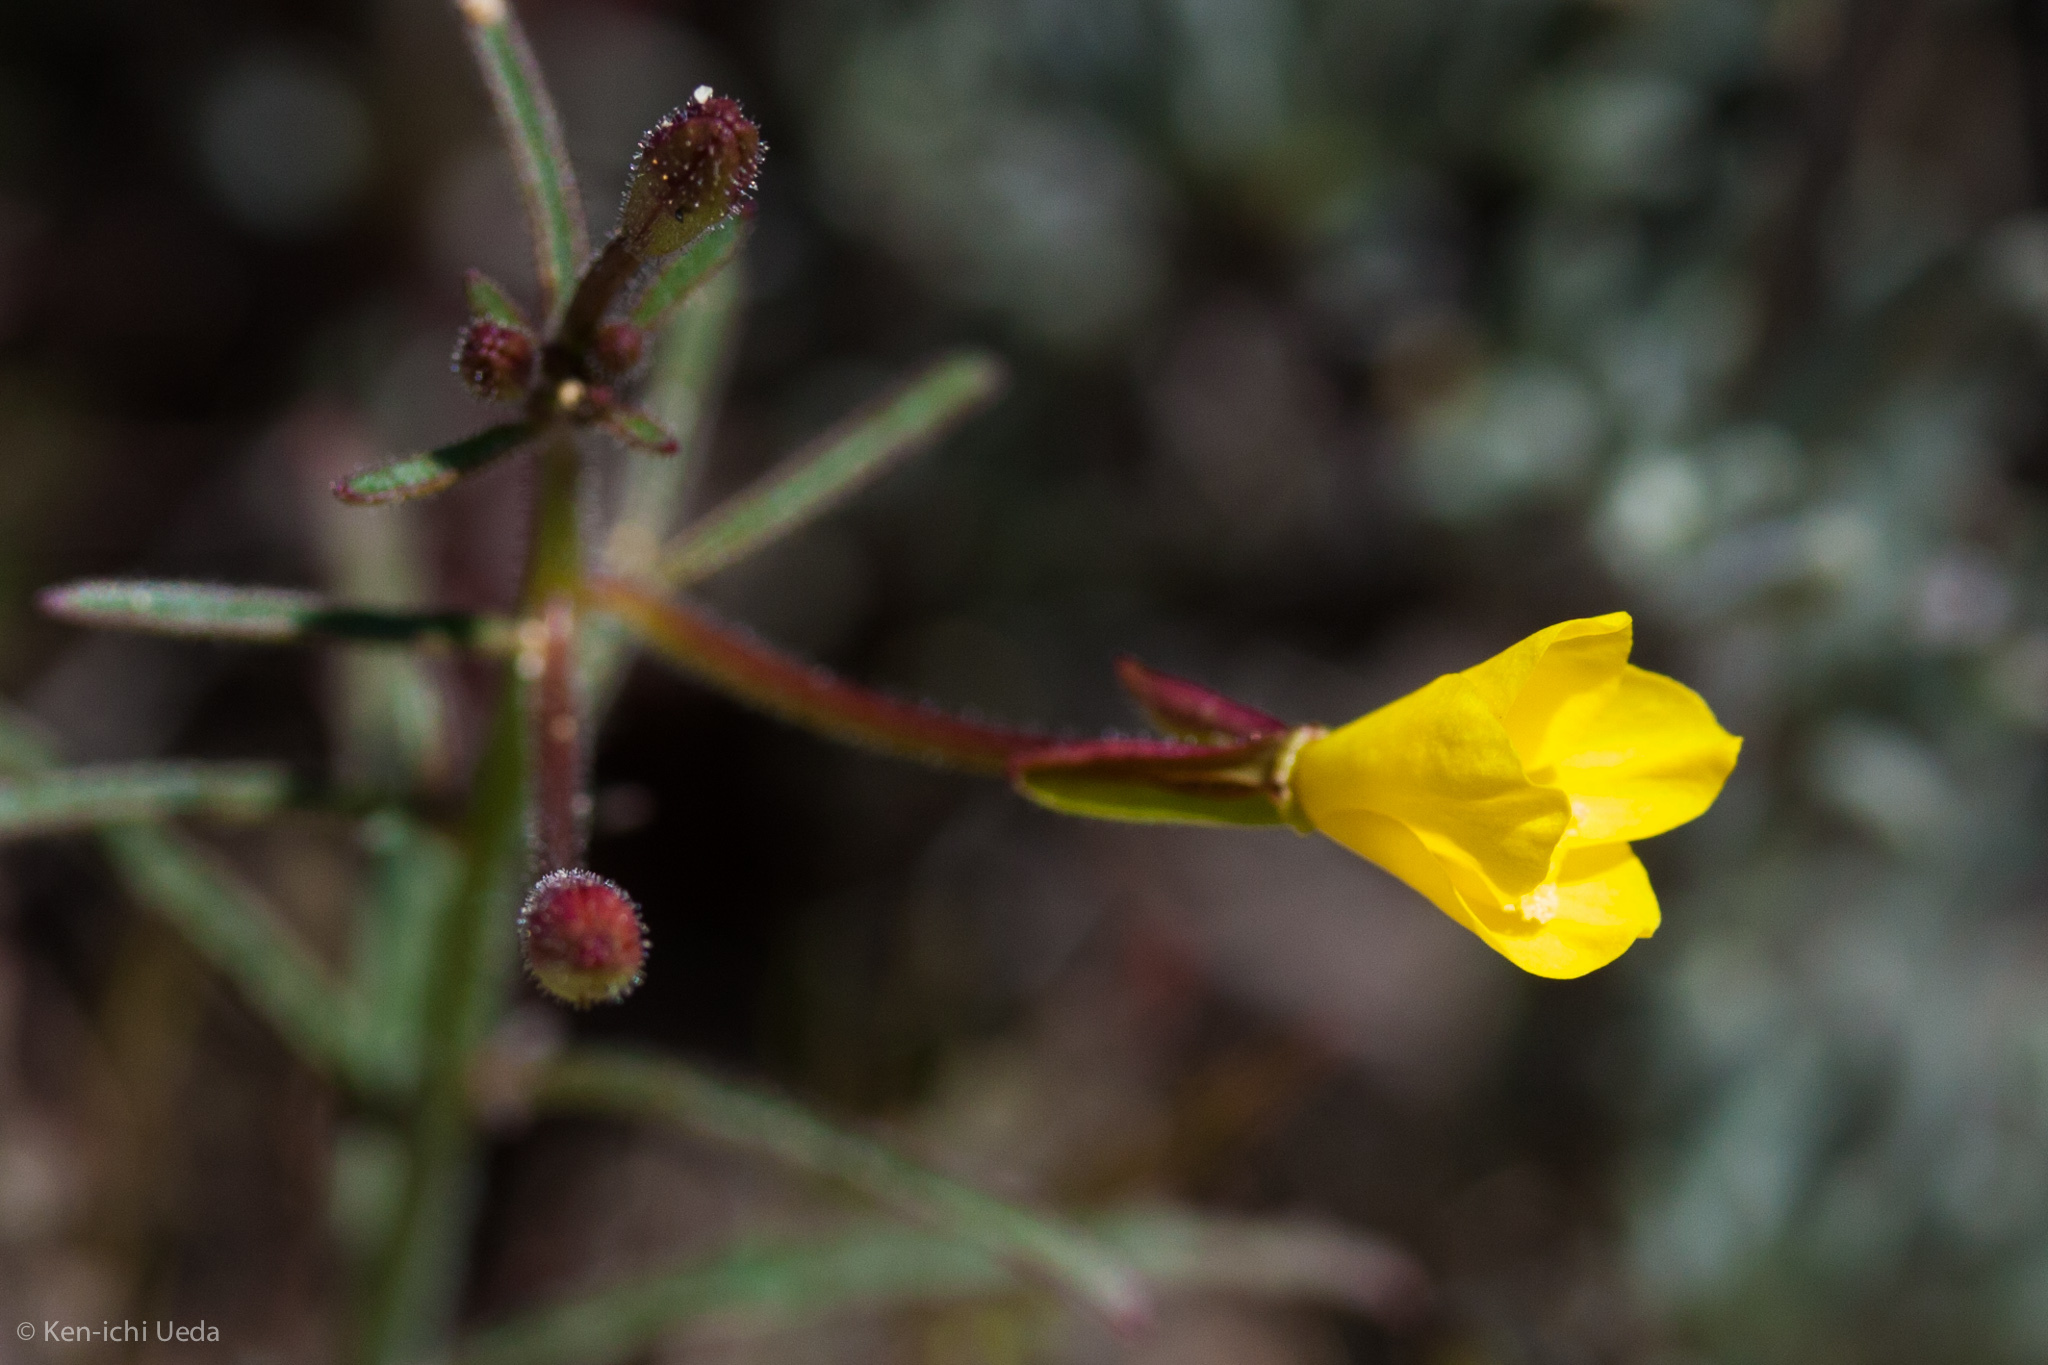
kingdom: Plantae
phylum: Tracheophyta
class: Magnoliopsida
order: Myrtales
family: Onagraceae
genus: Eulobus
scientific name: Eulobus californicus
